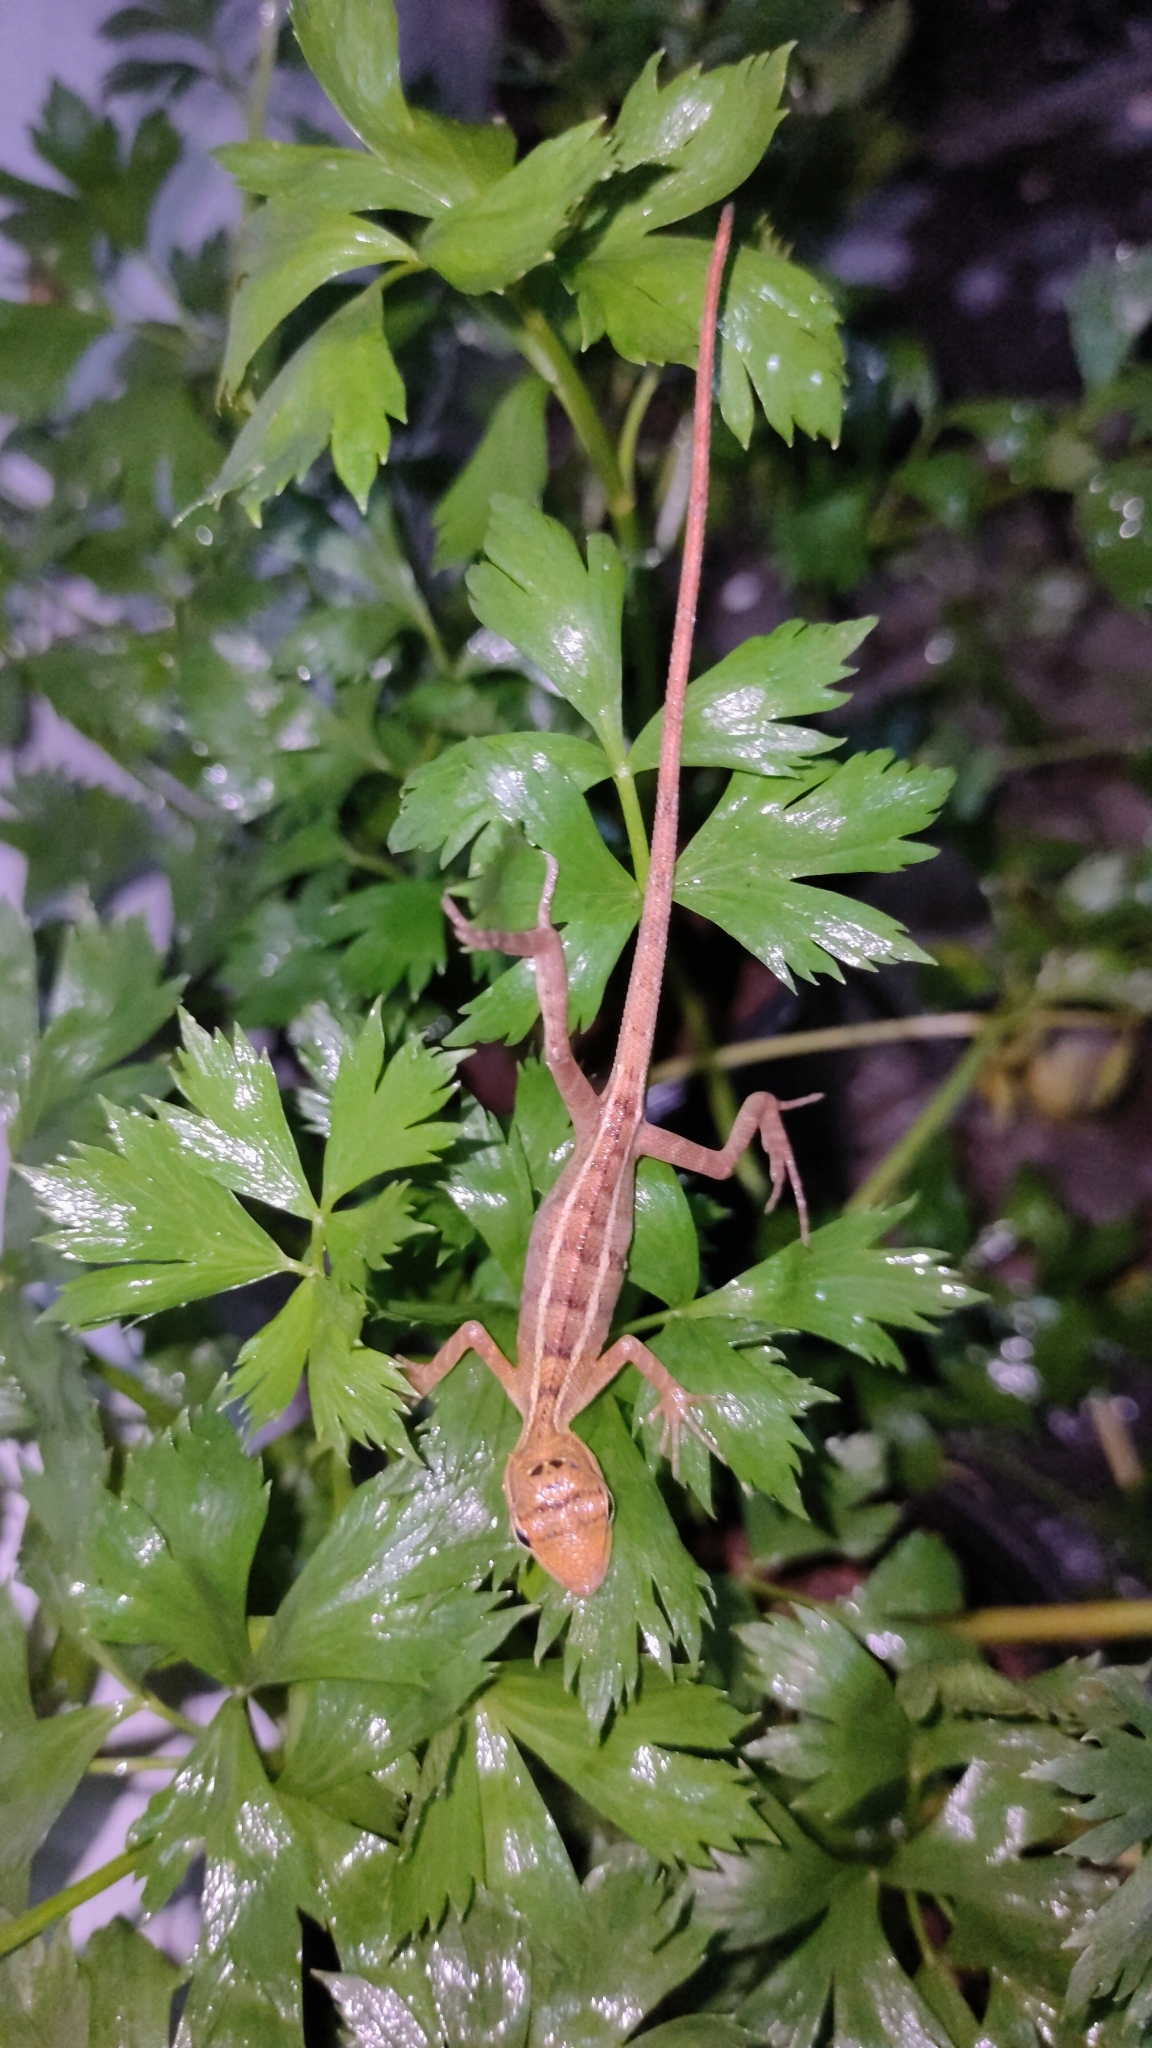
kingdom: Animalia
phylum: Chordata
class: Squamata
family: Agamidae
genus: Calotes
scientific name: Calotes versicolor
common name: Oriental garden lizard
